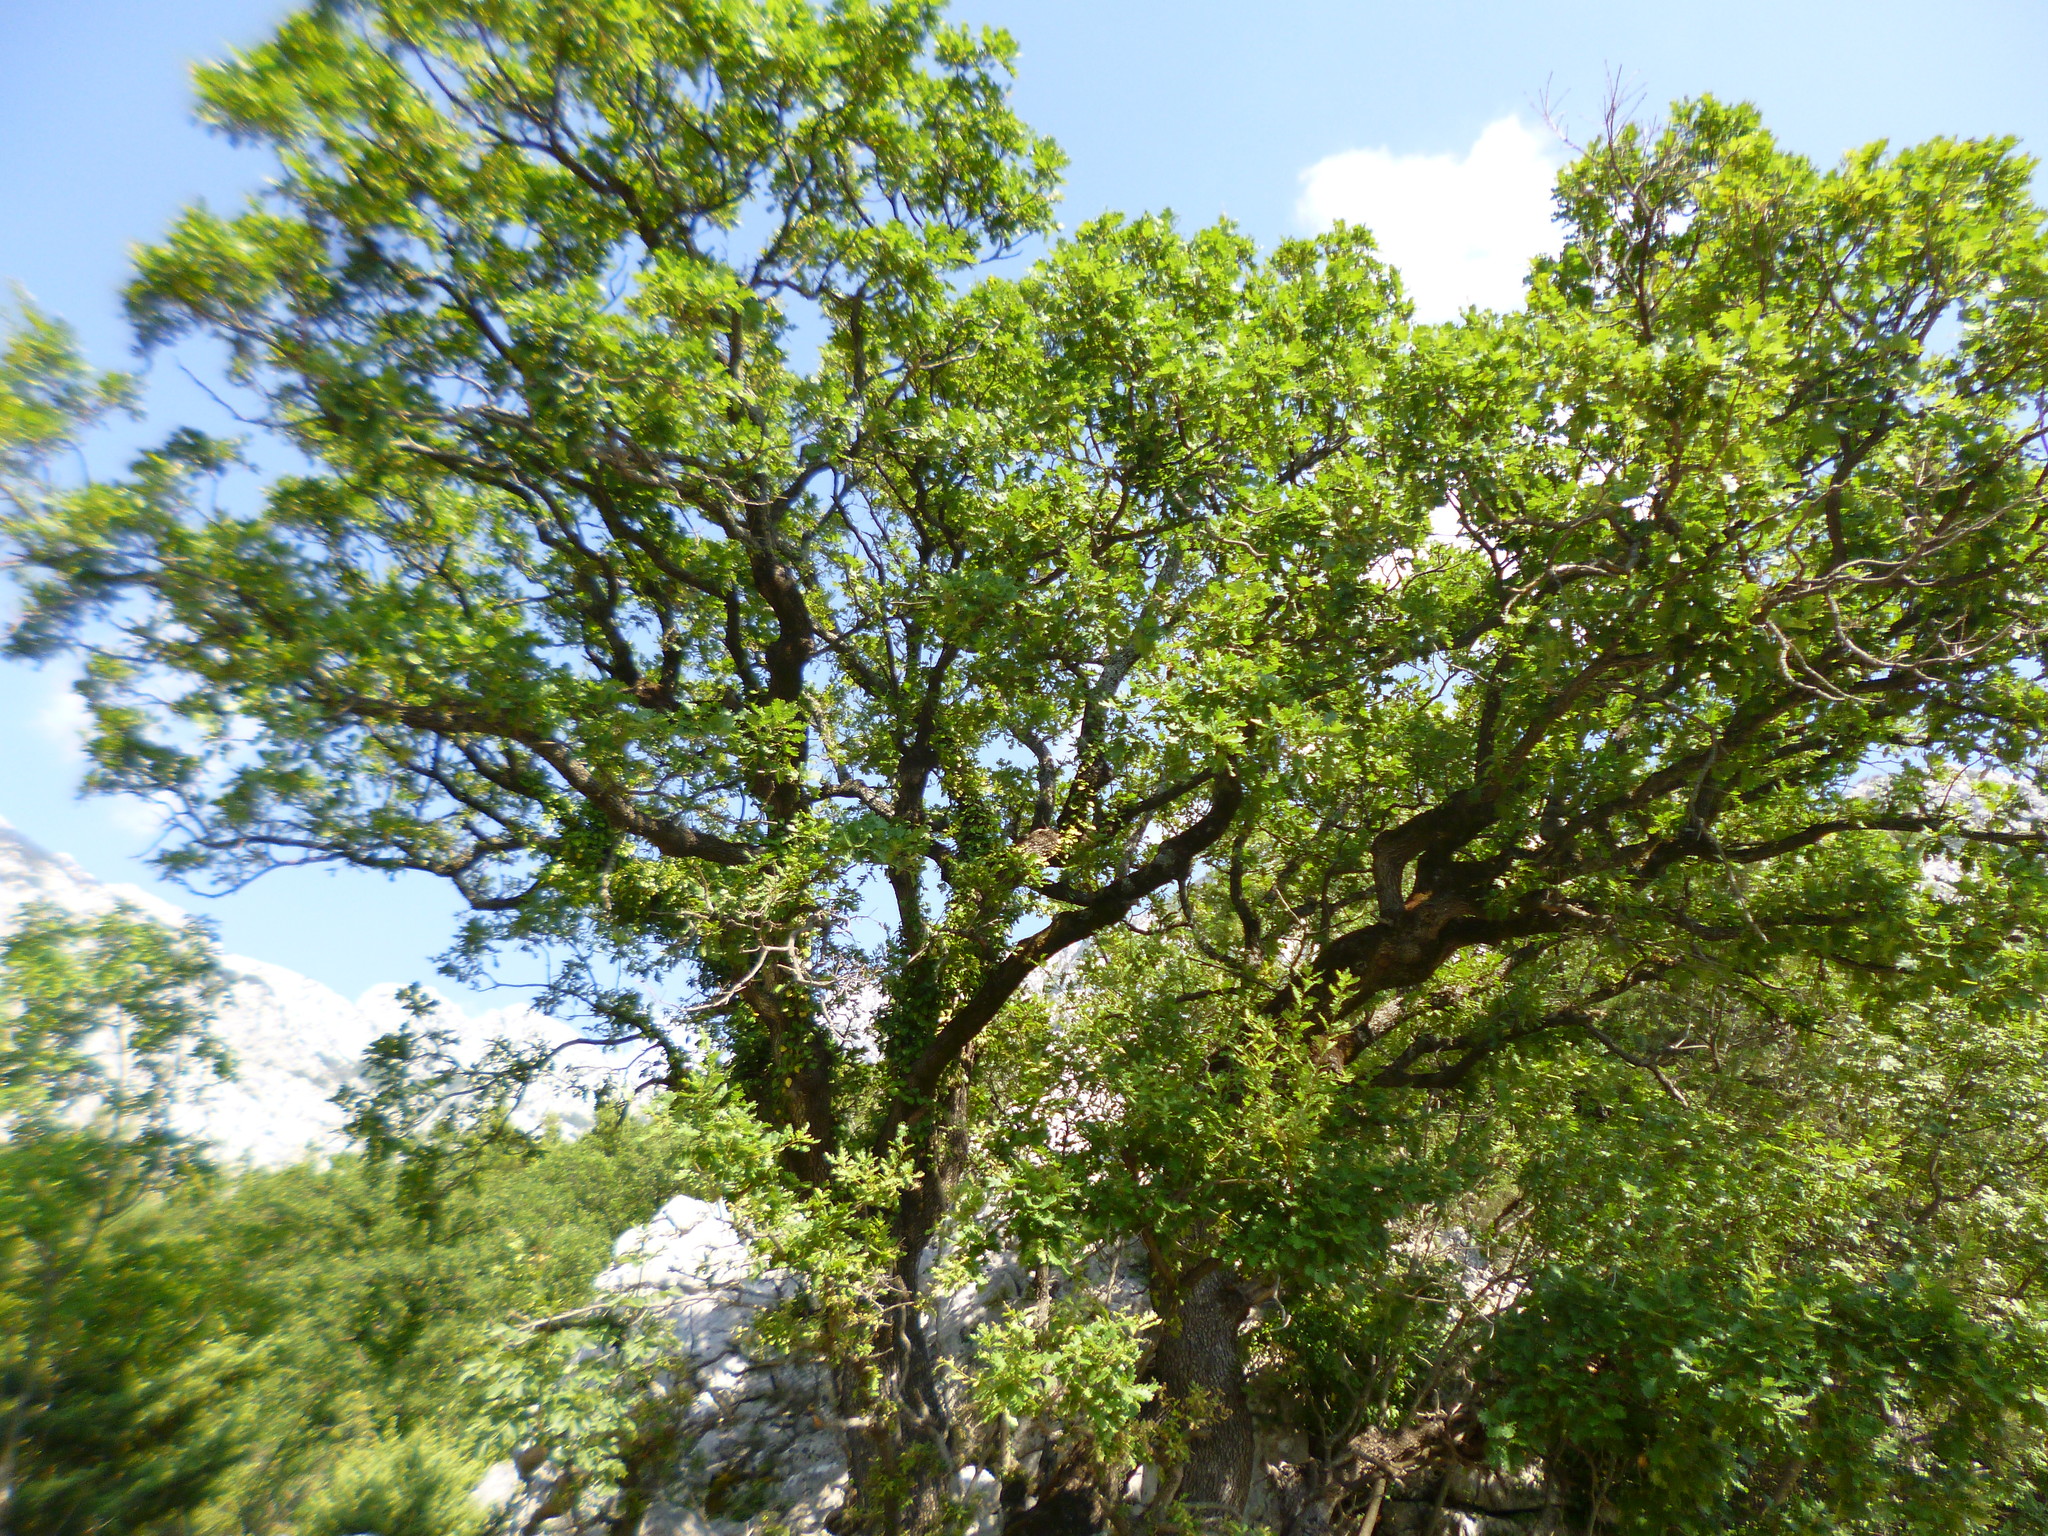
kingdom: Plantae
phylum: Tracheophyta
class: Magnoliopsida
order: Fagales
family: Fagaceae
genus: Quercus
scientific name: Quercus pubescens
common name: Downy oak
